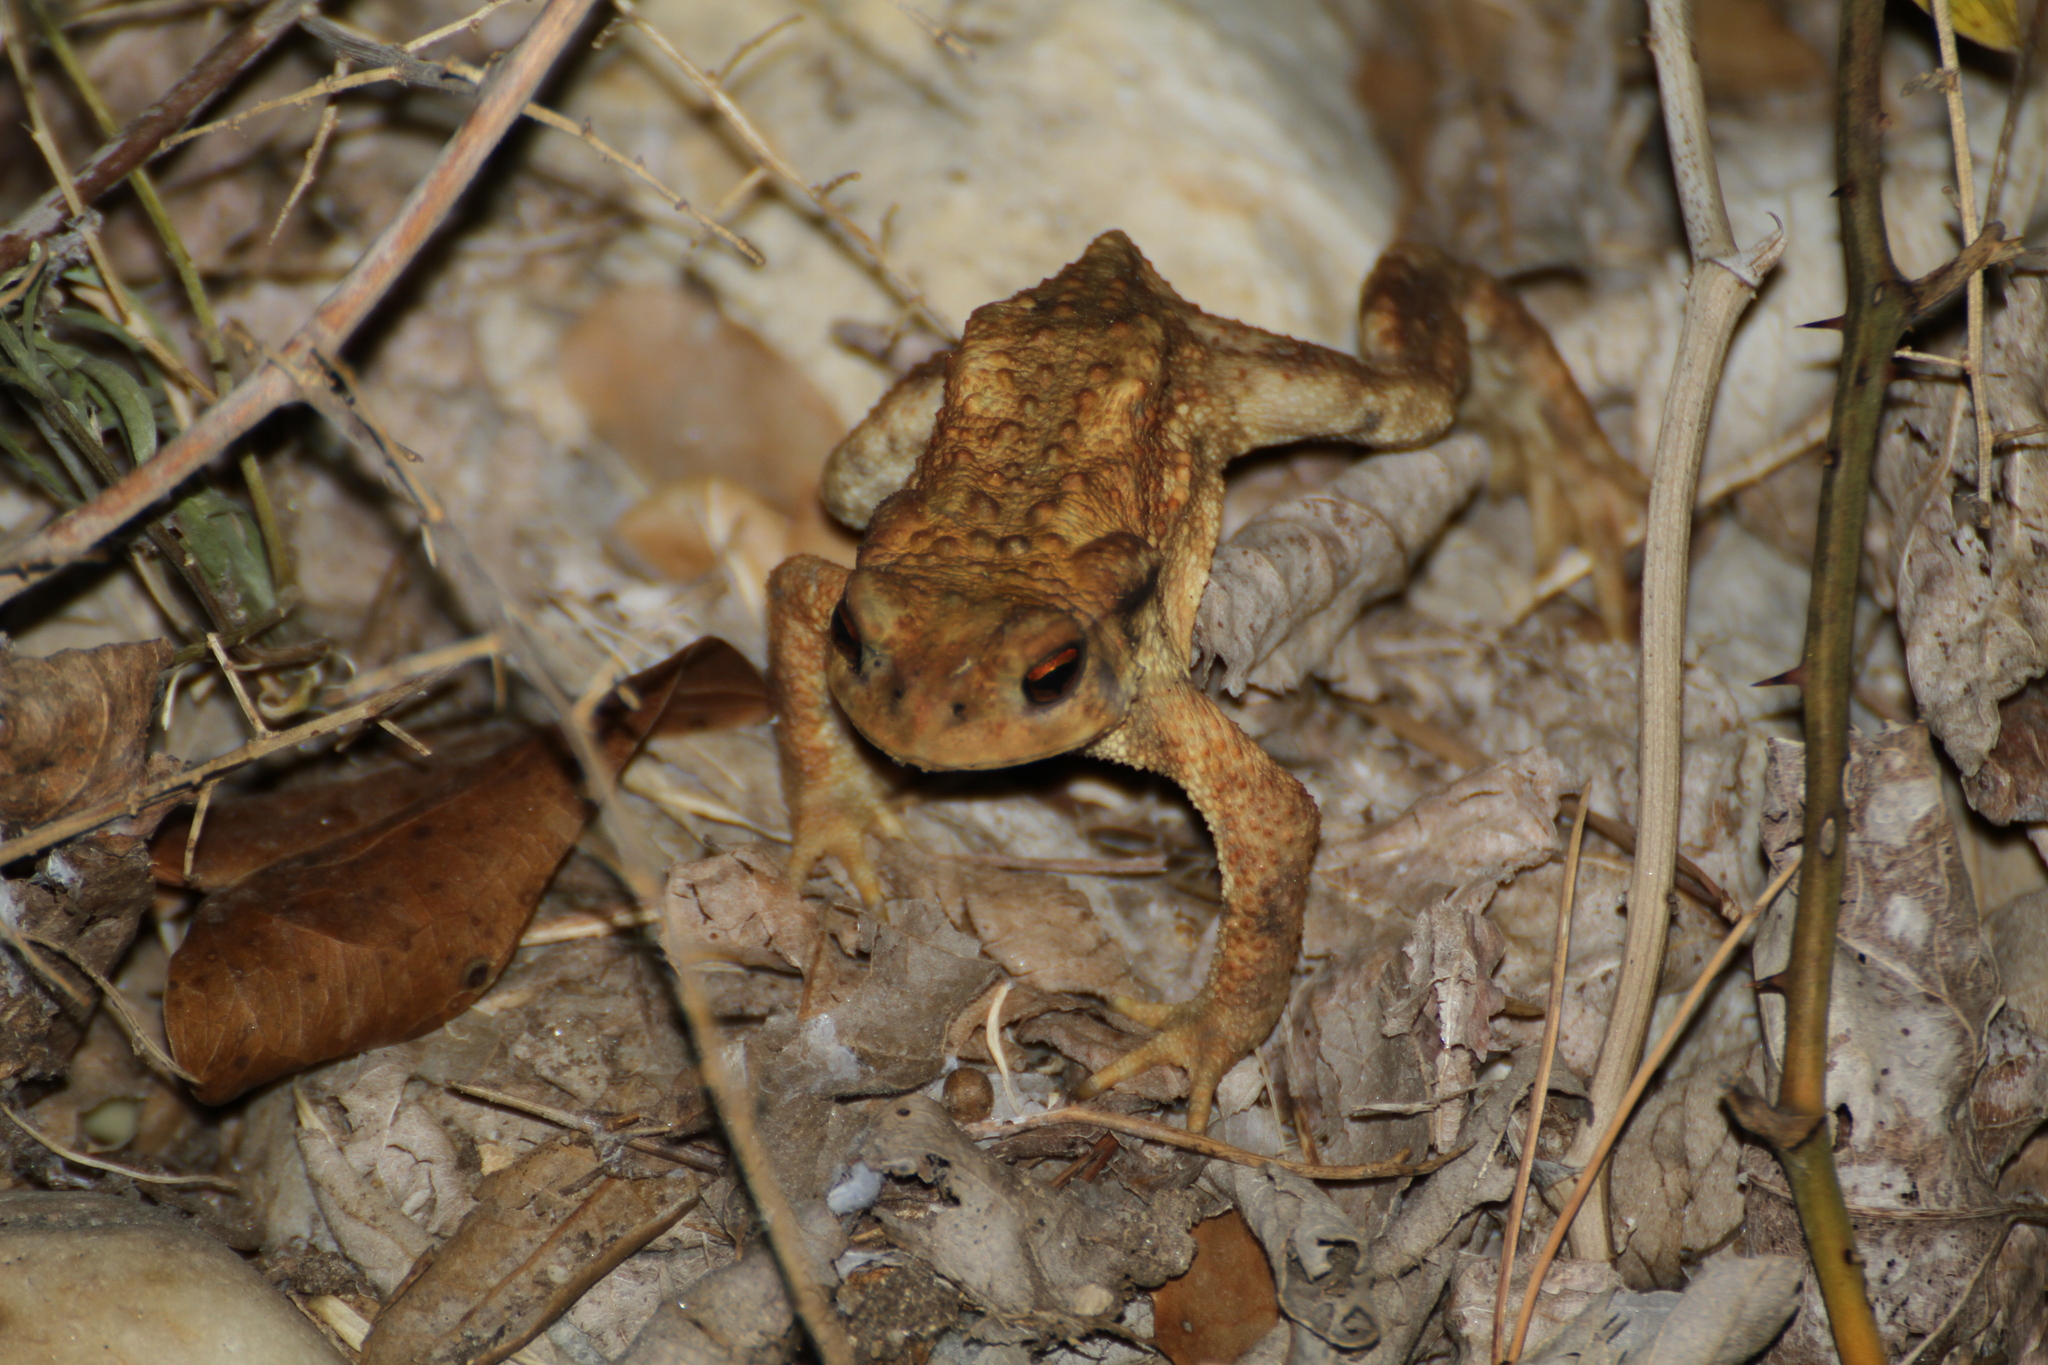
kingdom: Animalia
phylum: Chordata
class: Amphibia
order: Anura
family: Bufonidae
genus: Bufo
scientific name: Bufo spinosus
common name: Western common toad
